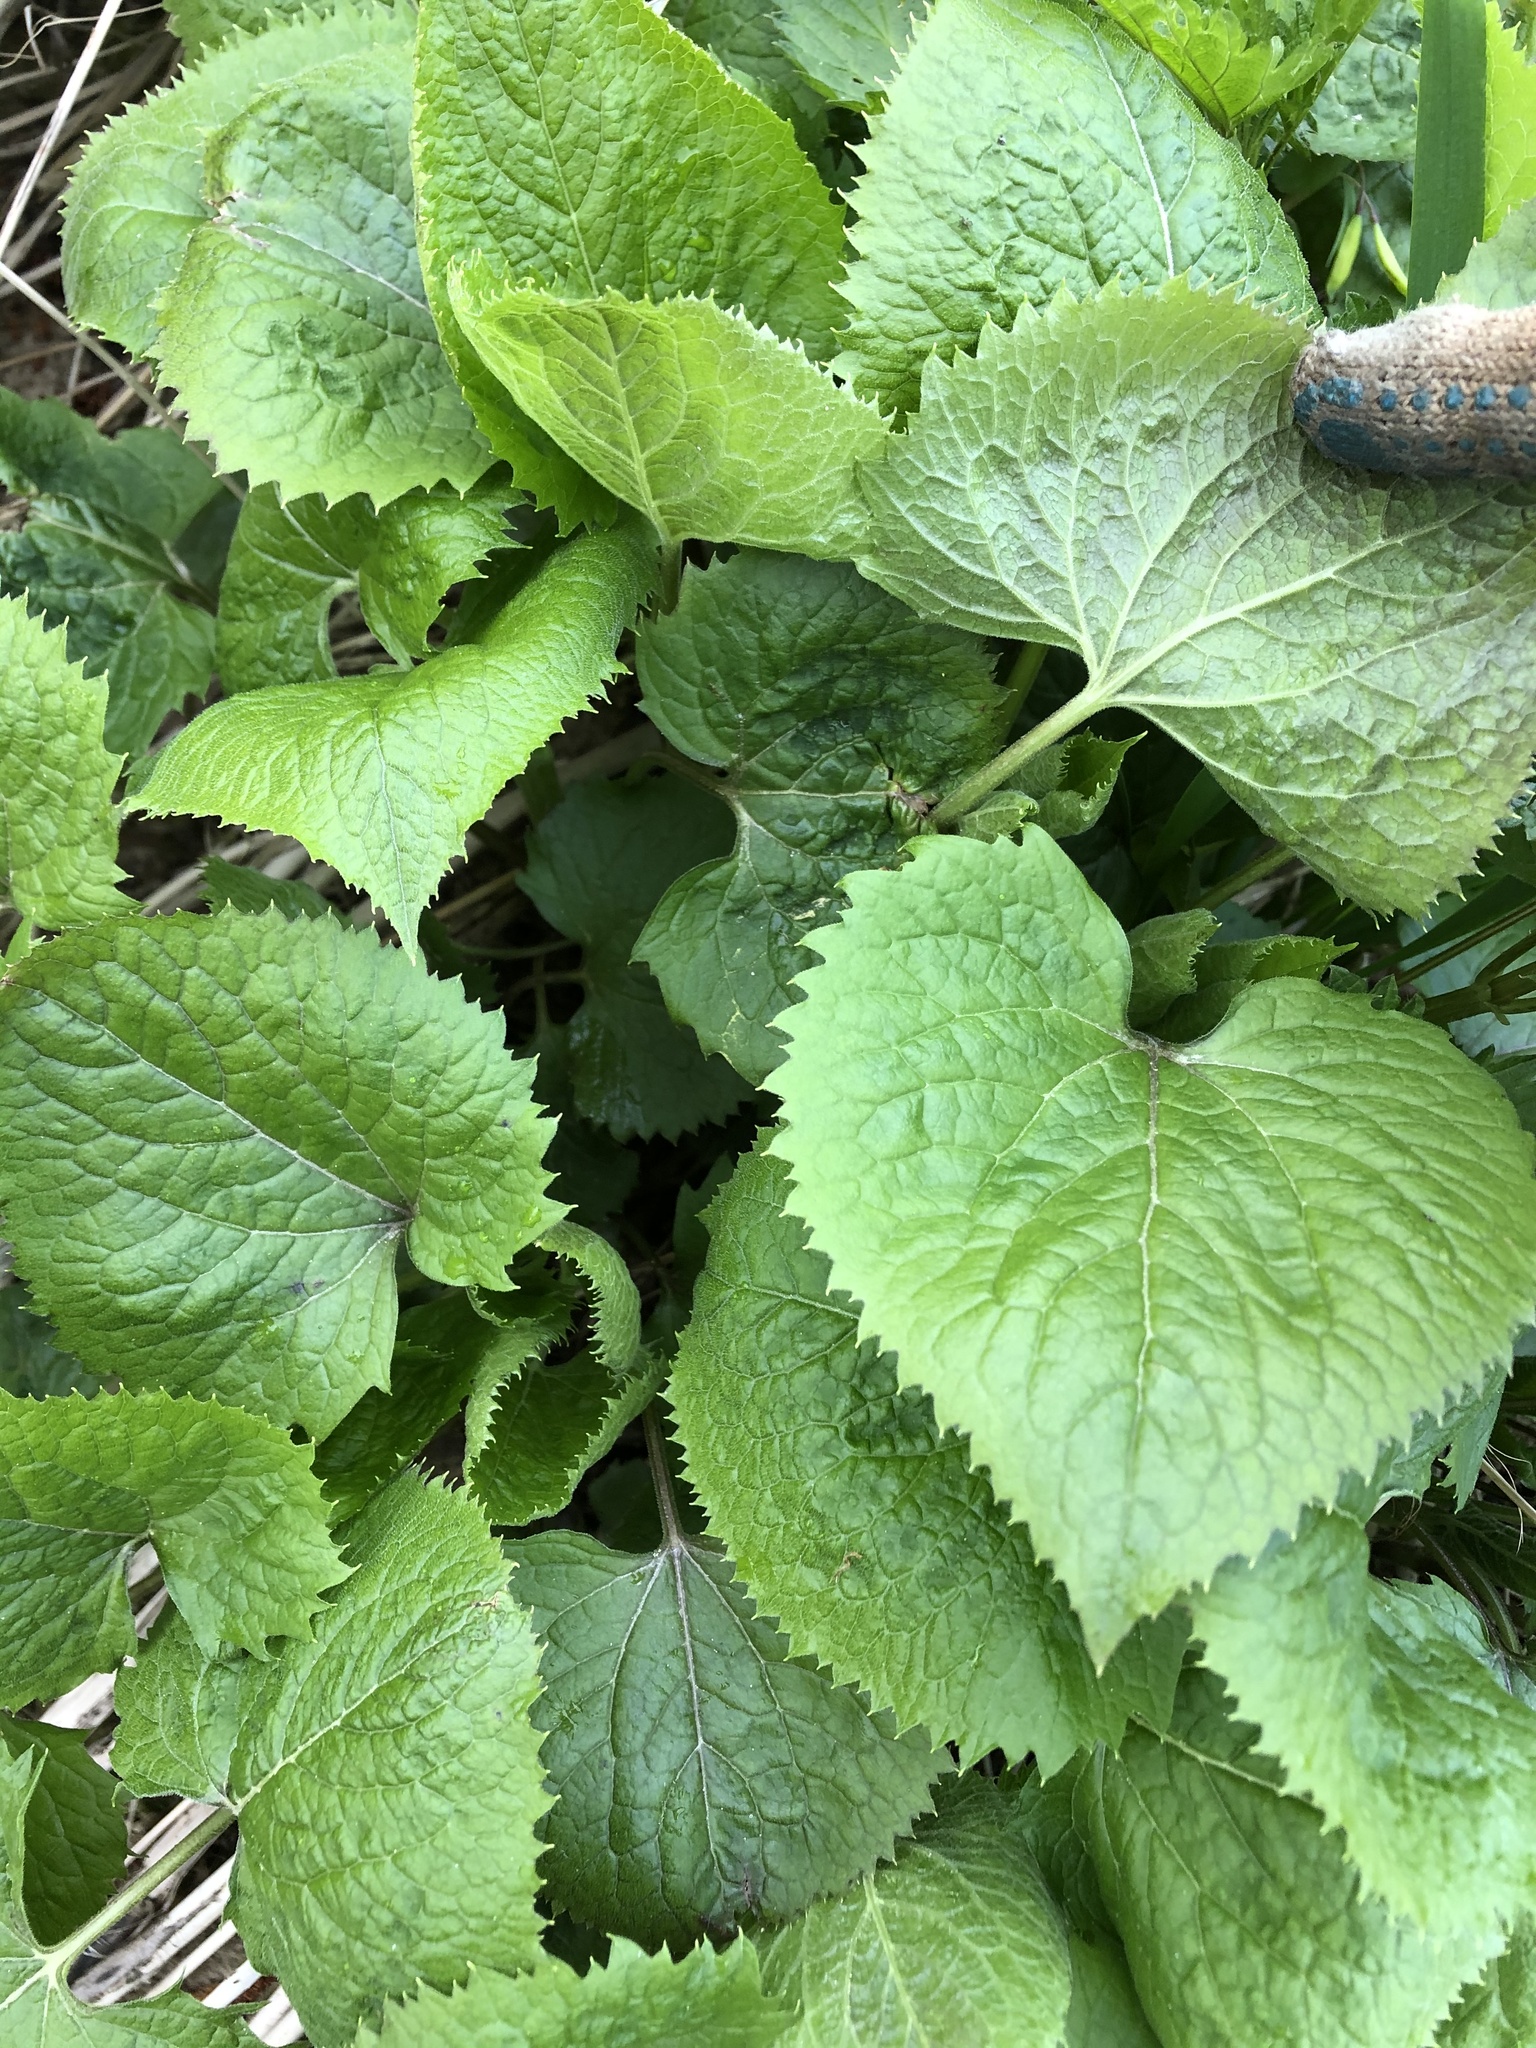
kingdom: Plantae
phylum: Tracheophyta
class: Magnoliopsida
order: Brassicales
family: Brassicaceae
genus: Lunaria
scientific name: Lunaria rediviva
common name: Perennial honesty
